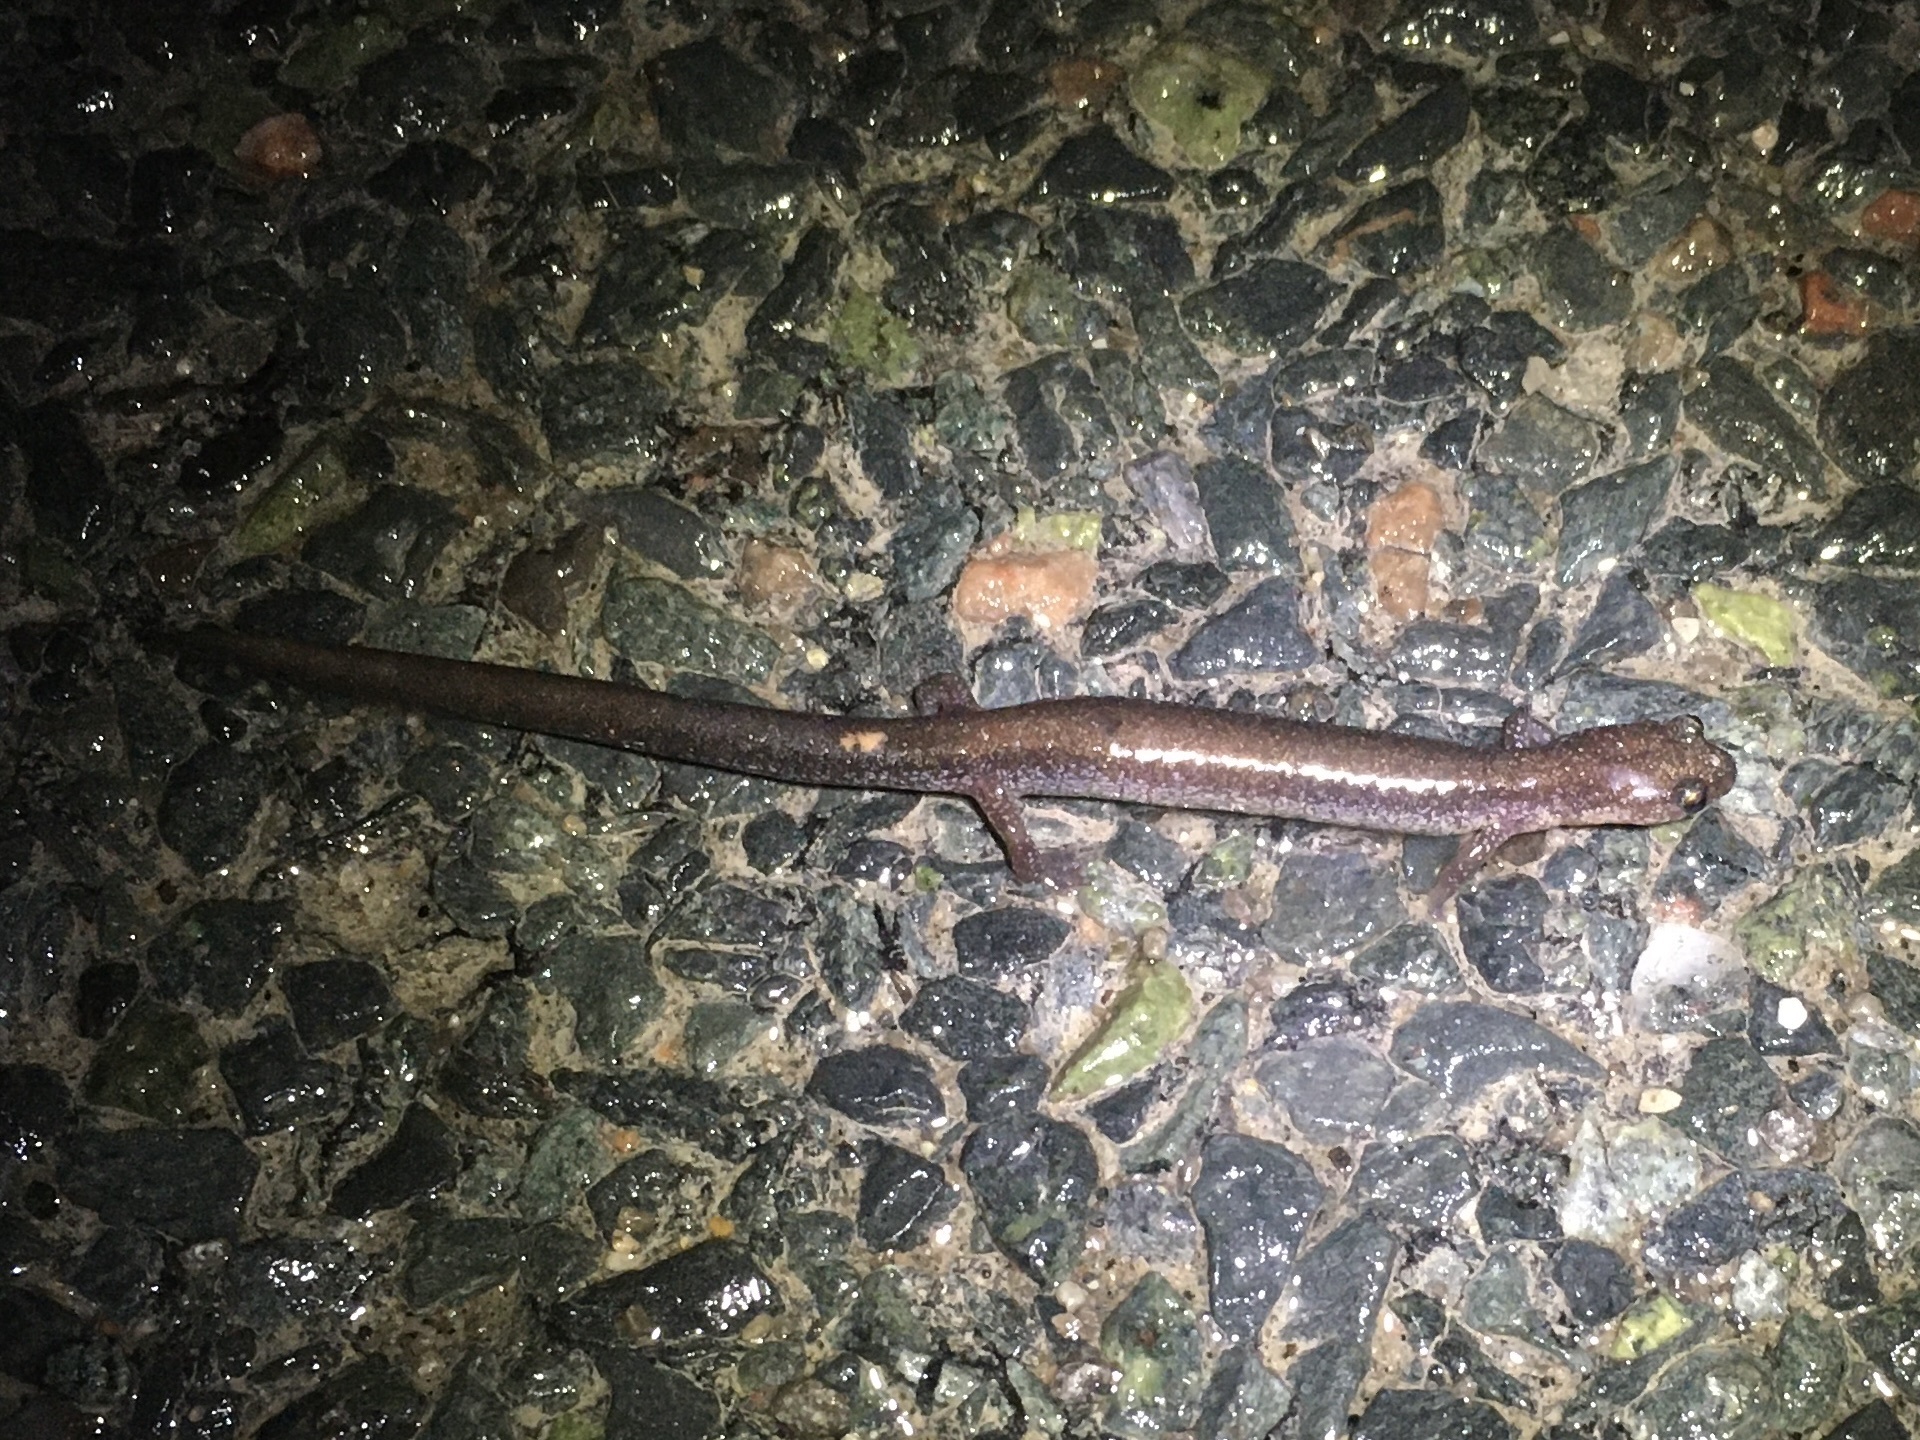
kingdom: Animalia
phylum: Chordata
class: Amphibia
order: Caudata
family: Plethodontidae
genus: Plethodon
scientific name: Plethodon cinereus
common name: Redback salamander
